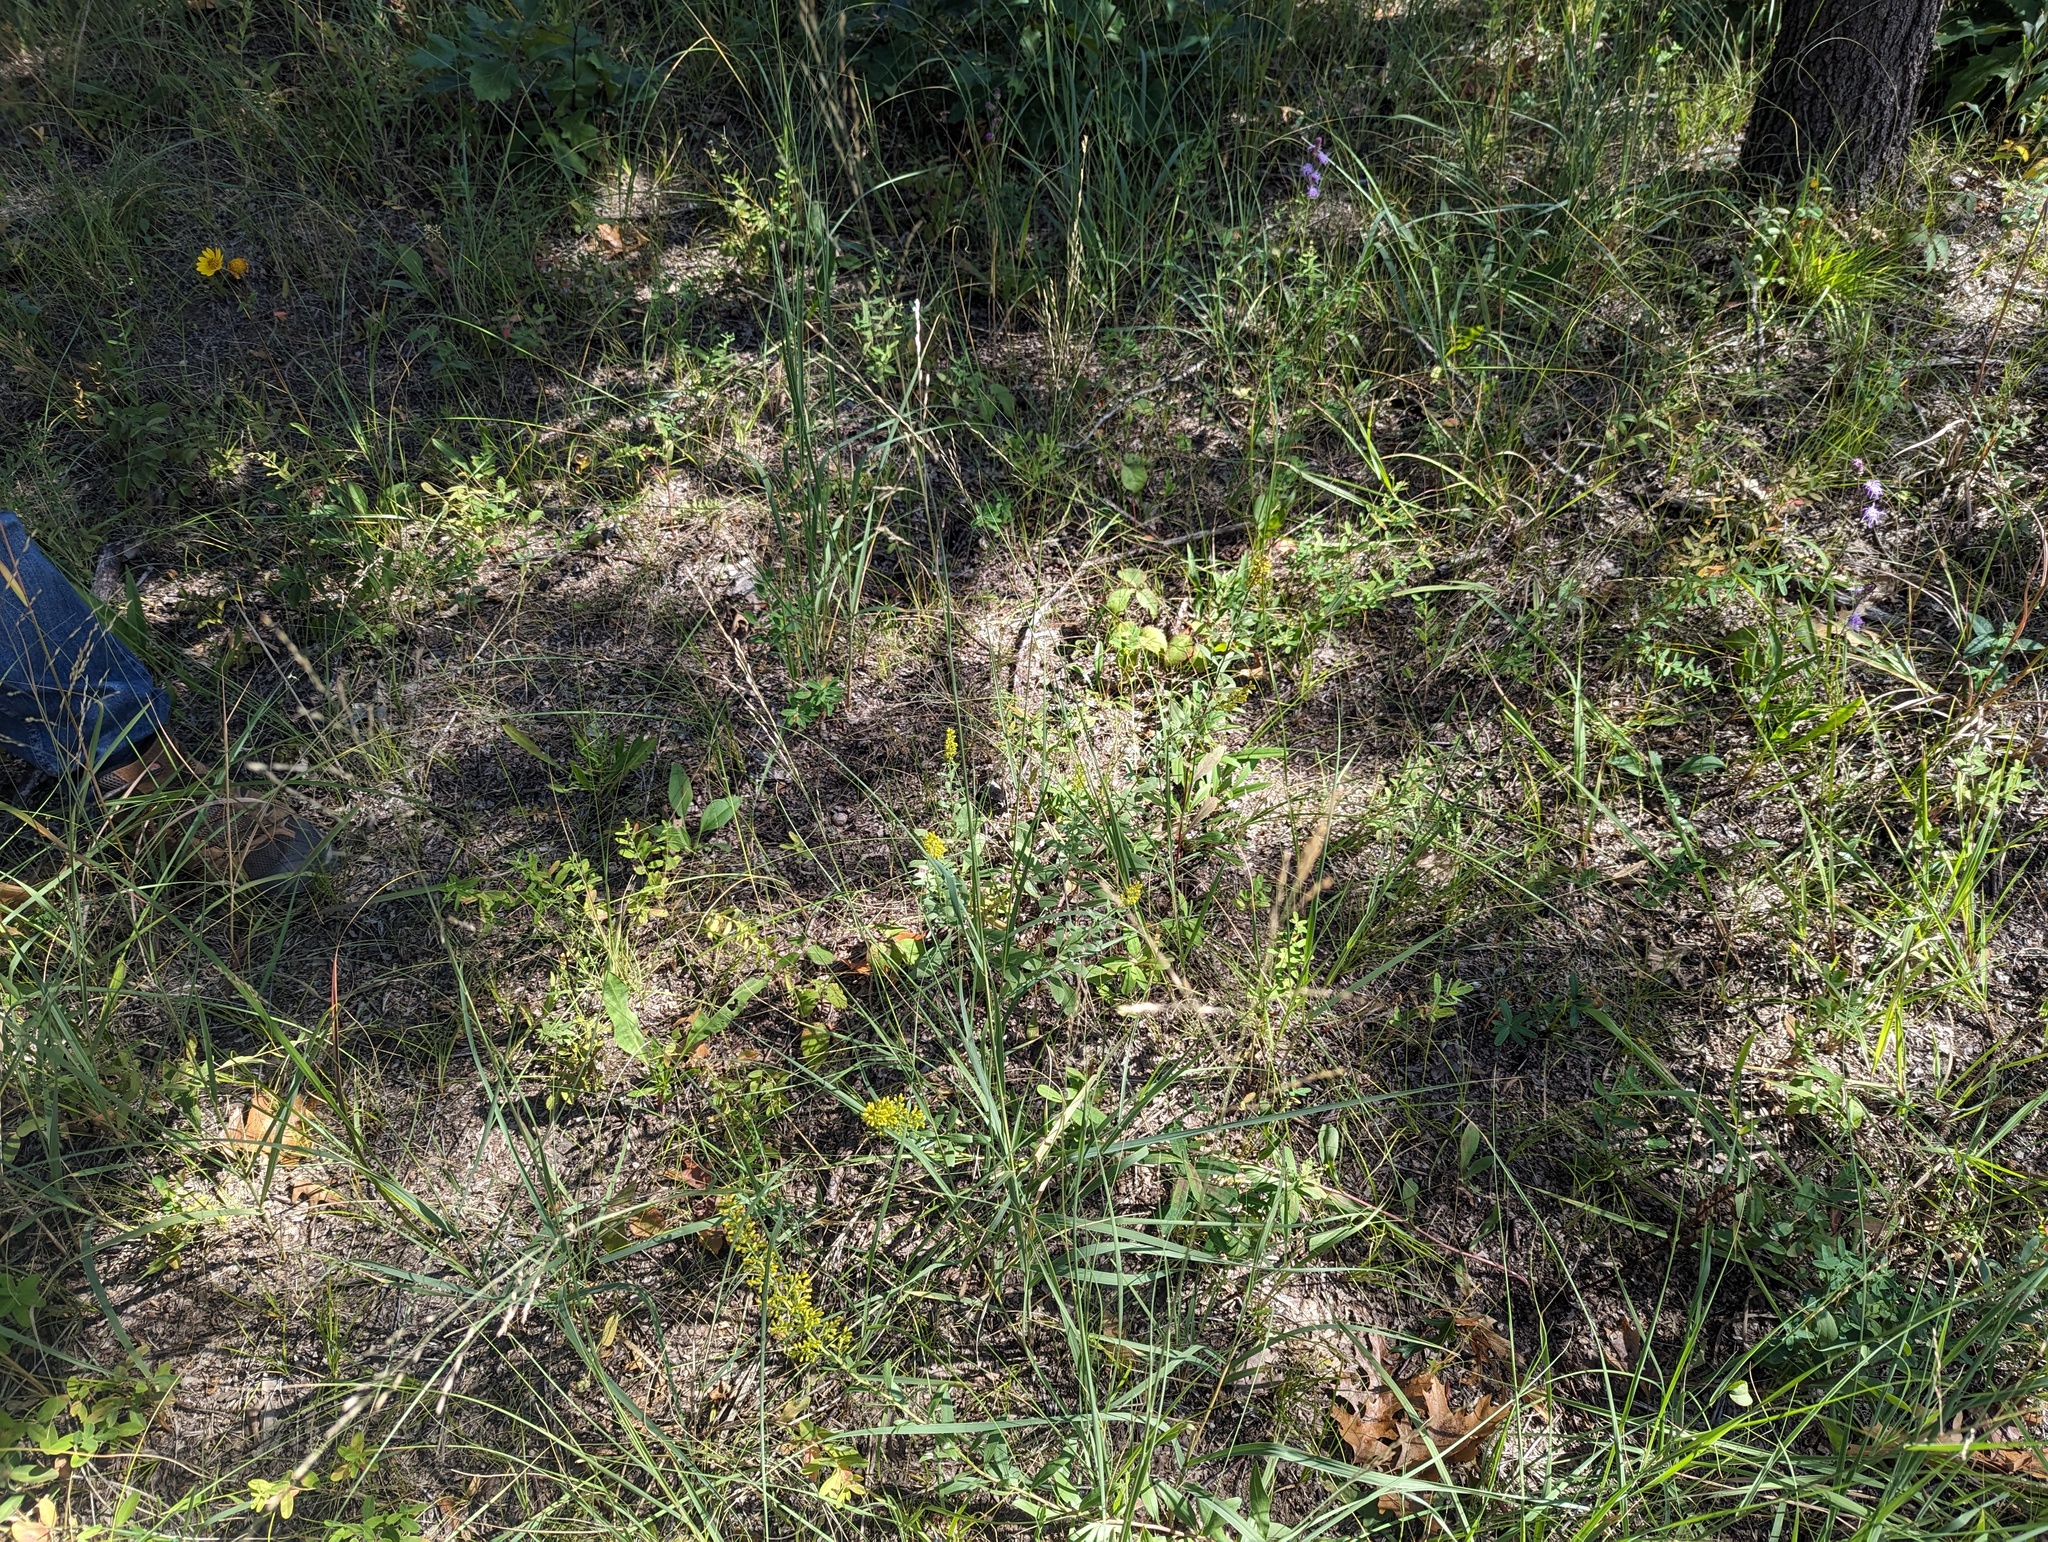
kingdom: Plantae
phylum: Tracheophyta
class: Liliopsida
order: Poales
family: Poaceae
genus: Sporobolus
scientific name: Sporobolus rigidus
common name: Prairie sandreed
